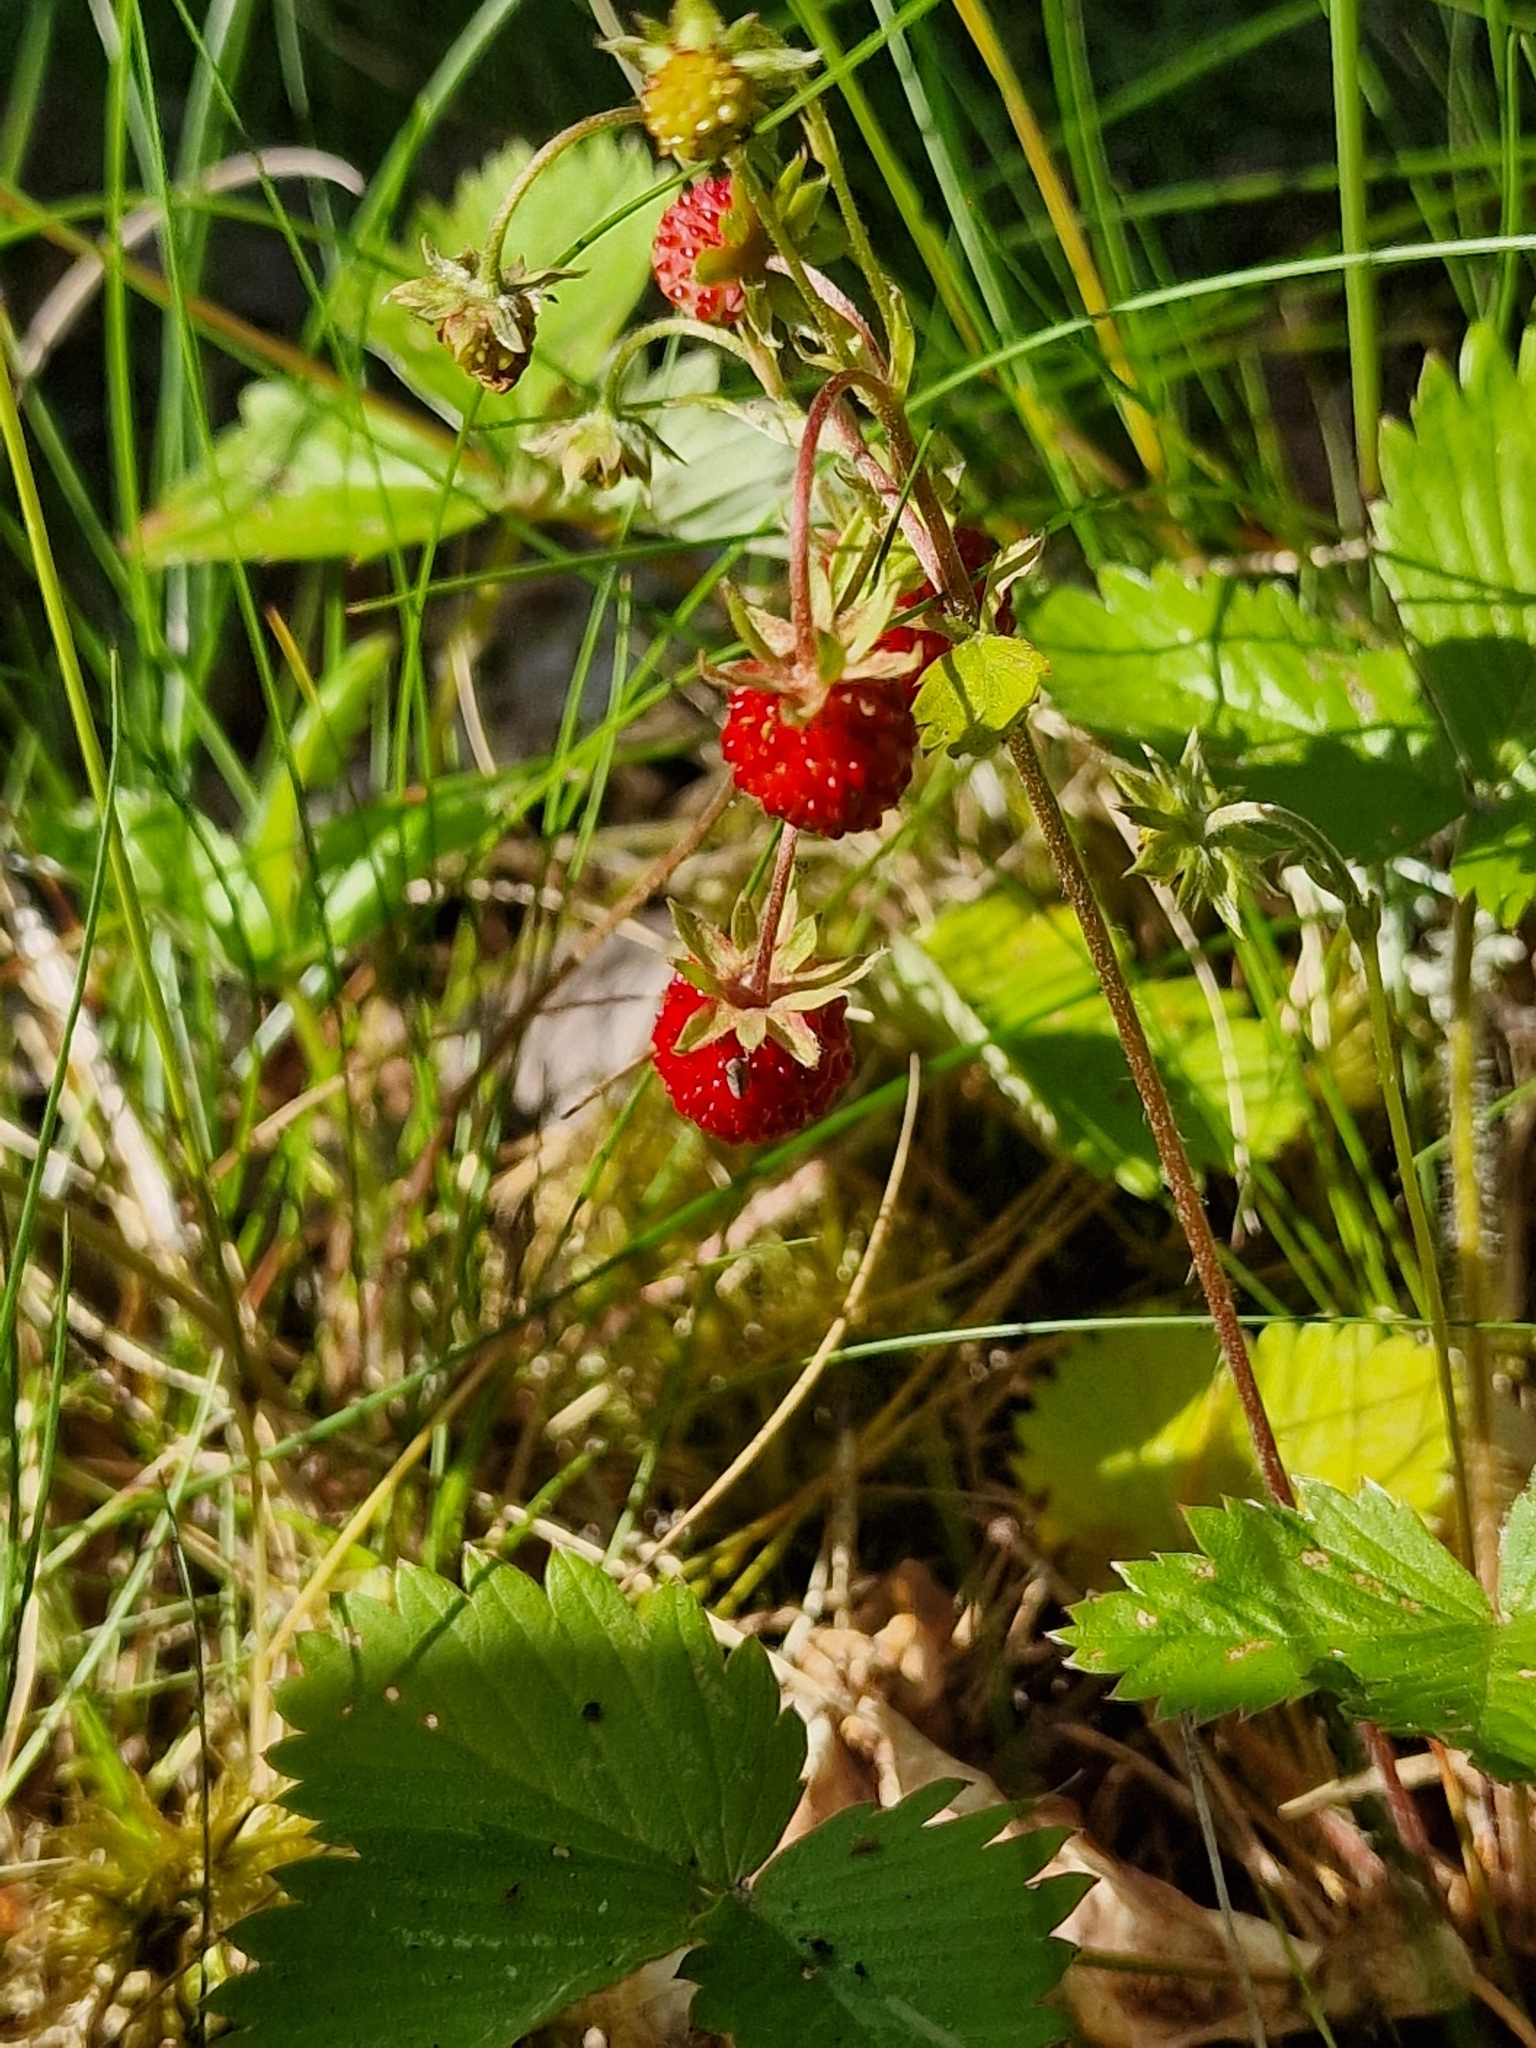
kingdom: Plantae
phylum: Tracheophyta
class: Magnoliopsida
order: Rosales
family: Rosaceae
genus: Fragaria
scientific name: Fragaria vesca
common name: Wild strawberry
